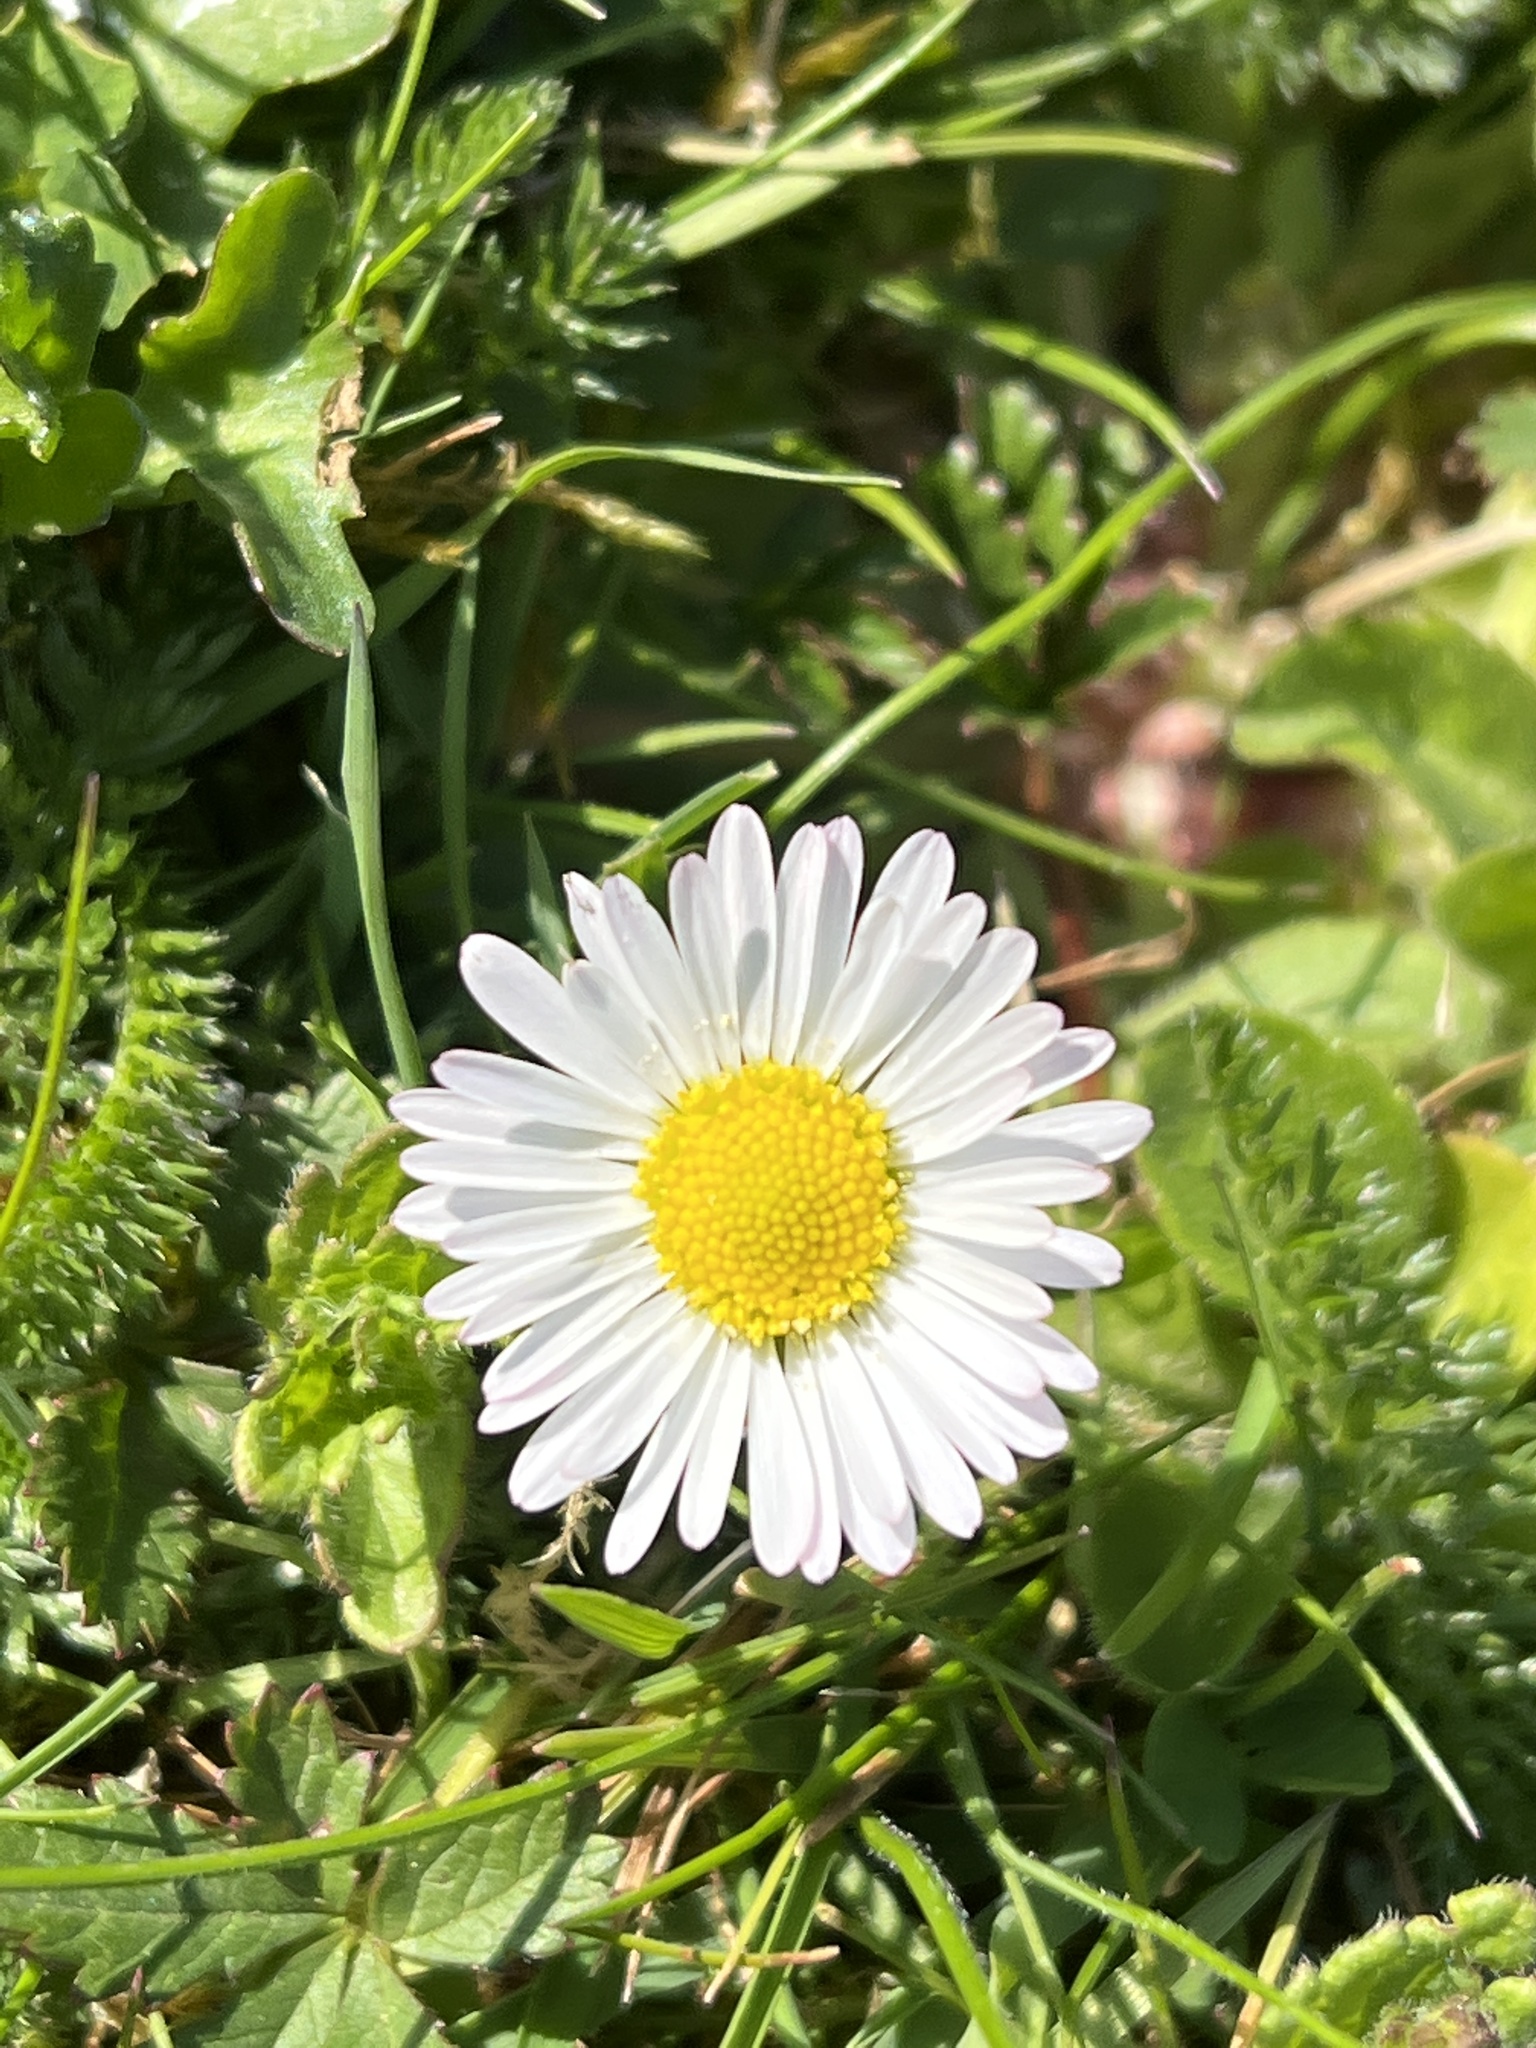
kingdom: Plantae
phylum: Tracheophyta
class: Magnoliopsida
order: Asterales
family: Asteraceae
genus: Bellis
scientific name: Bellis perennis
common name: Lawndaisy
